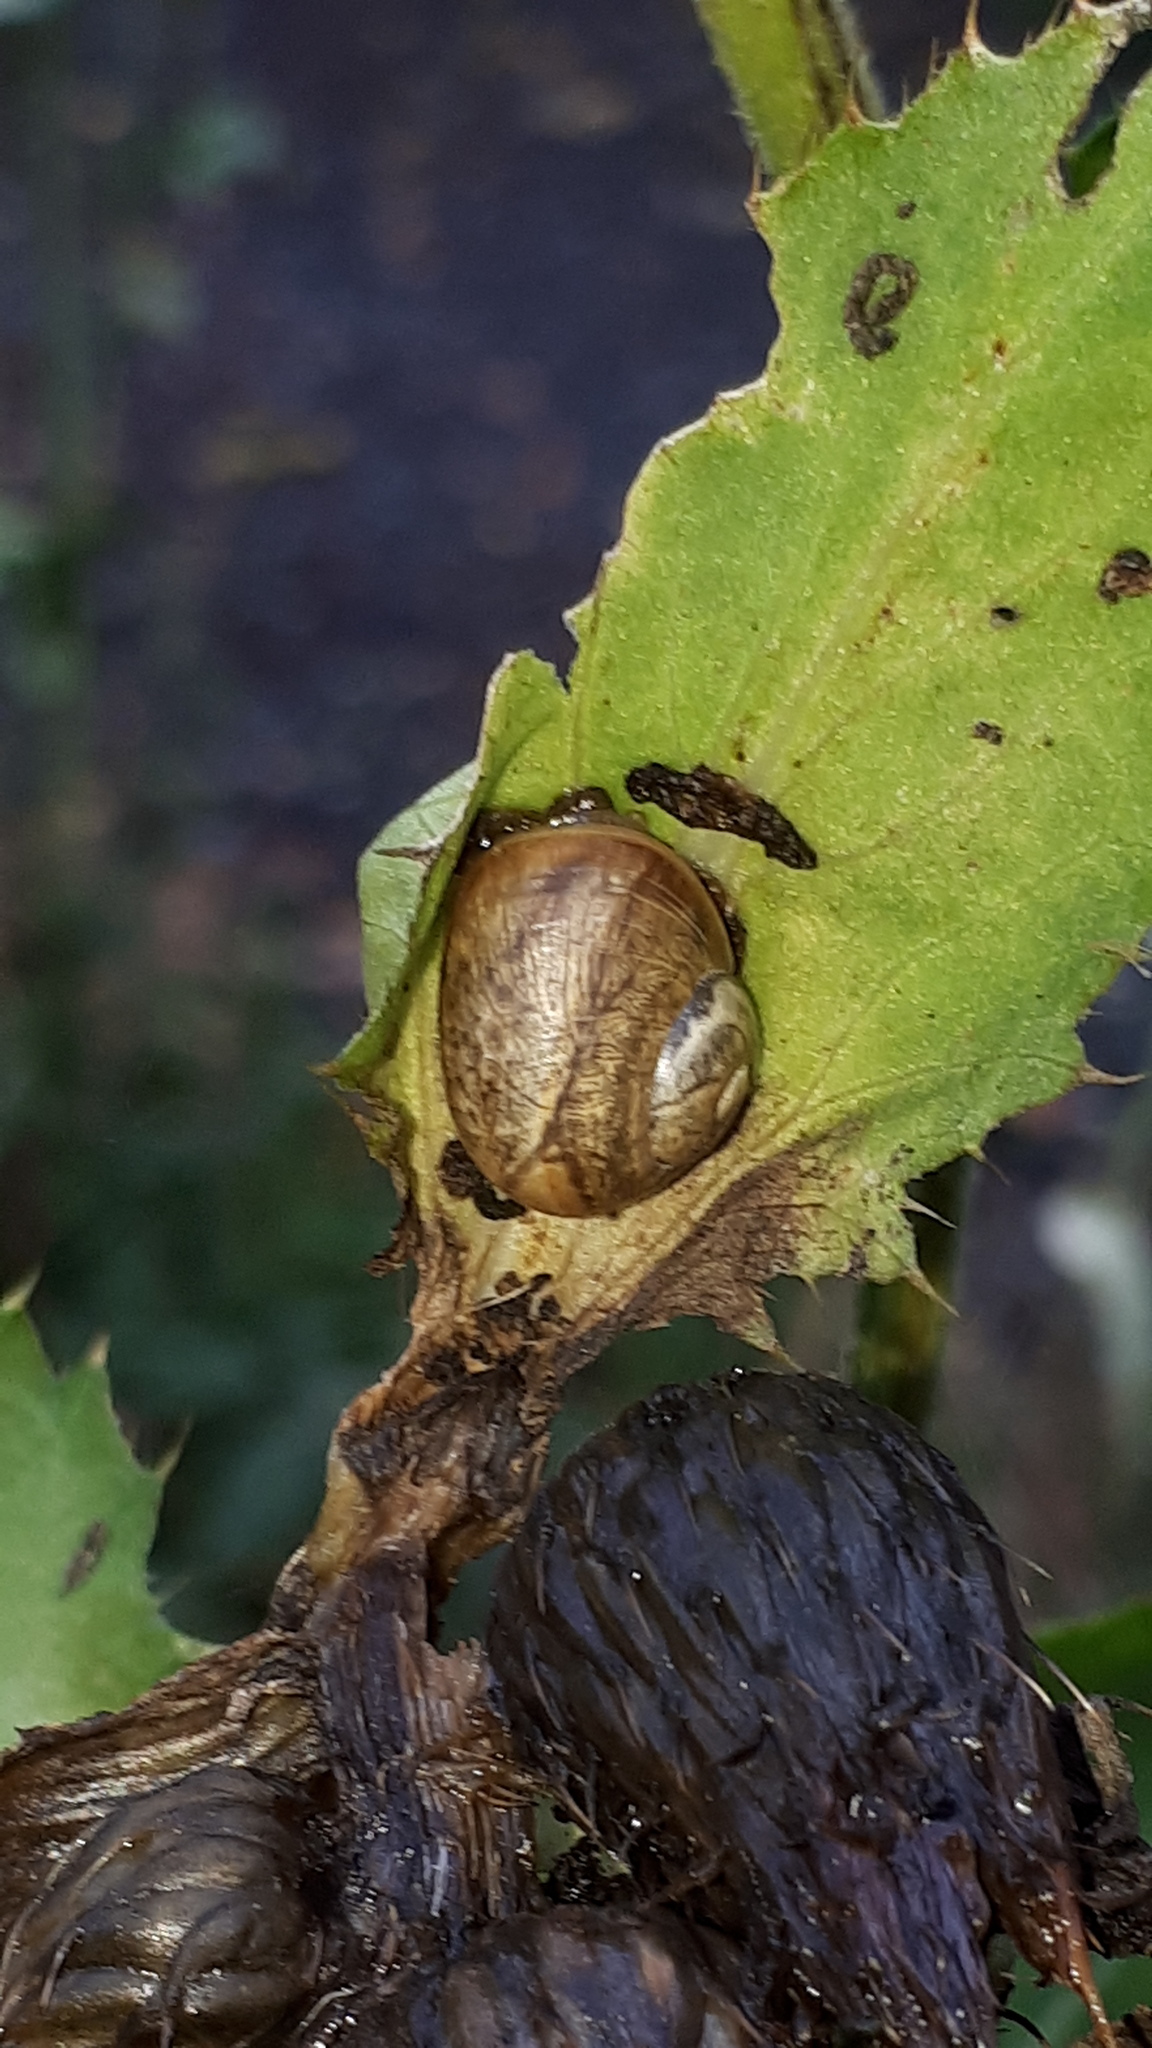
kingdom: Animalia
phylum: Mollusca
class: Gastropoda
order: Stylommatophora
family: Helicidae
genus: Helix
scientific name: Helix pomatia
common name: Roman snail
